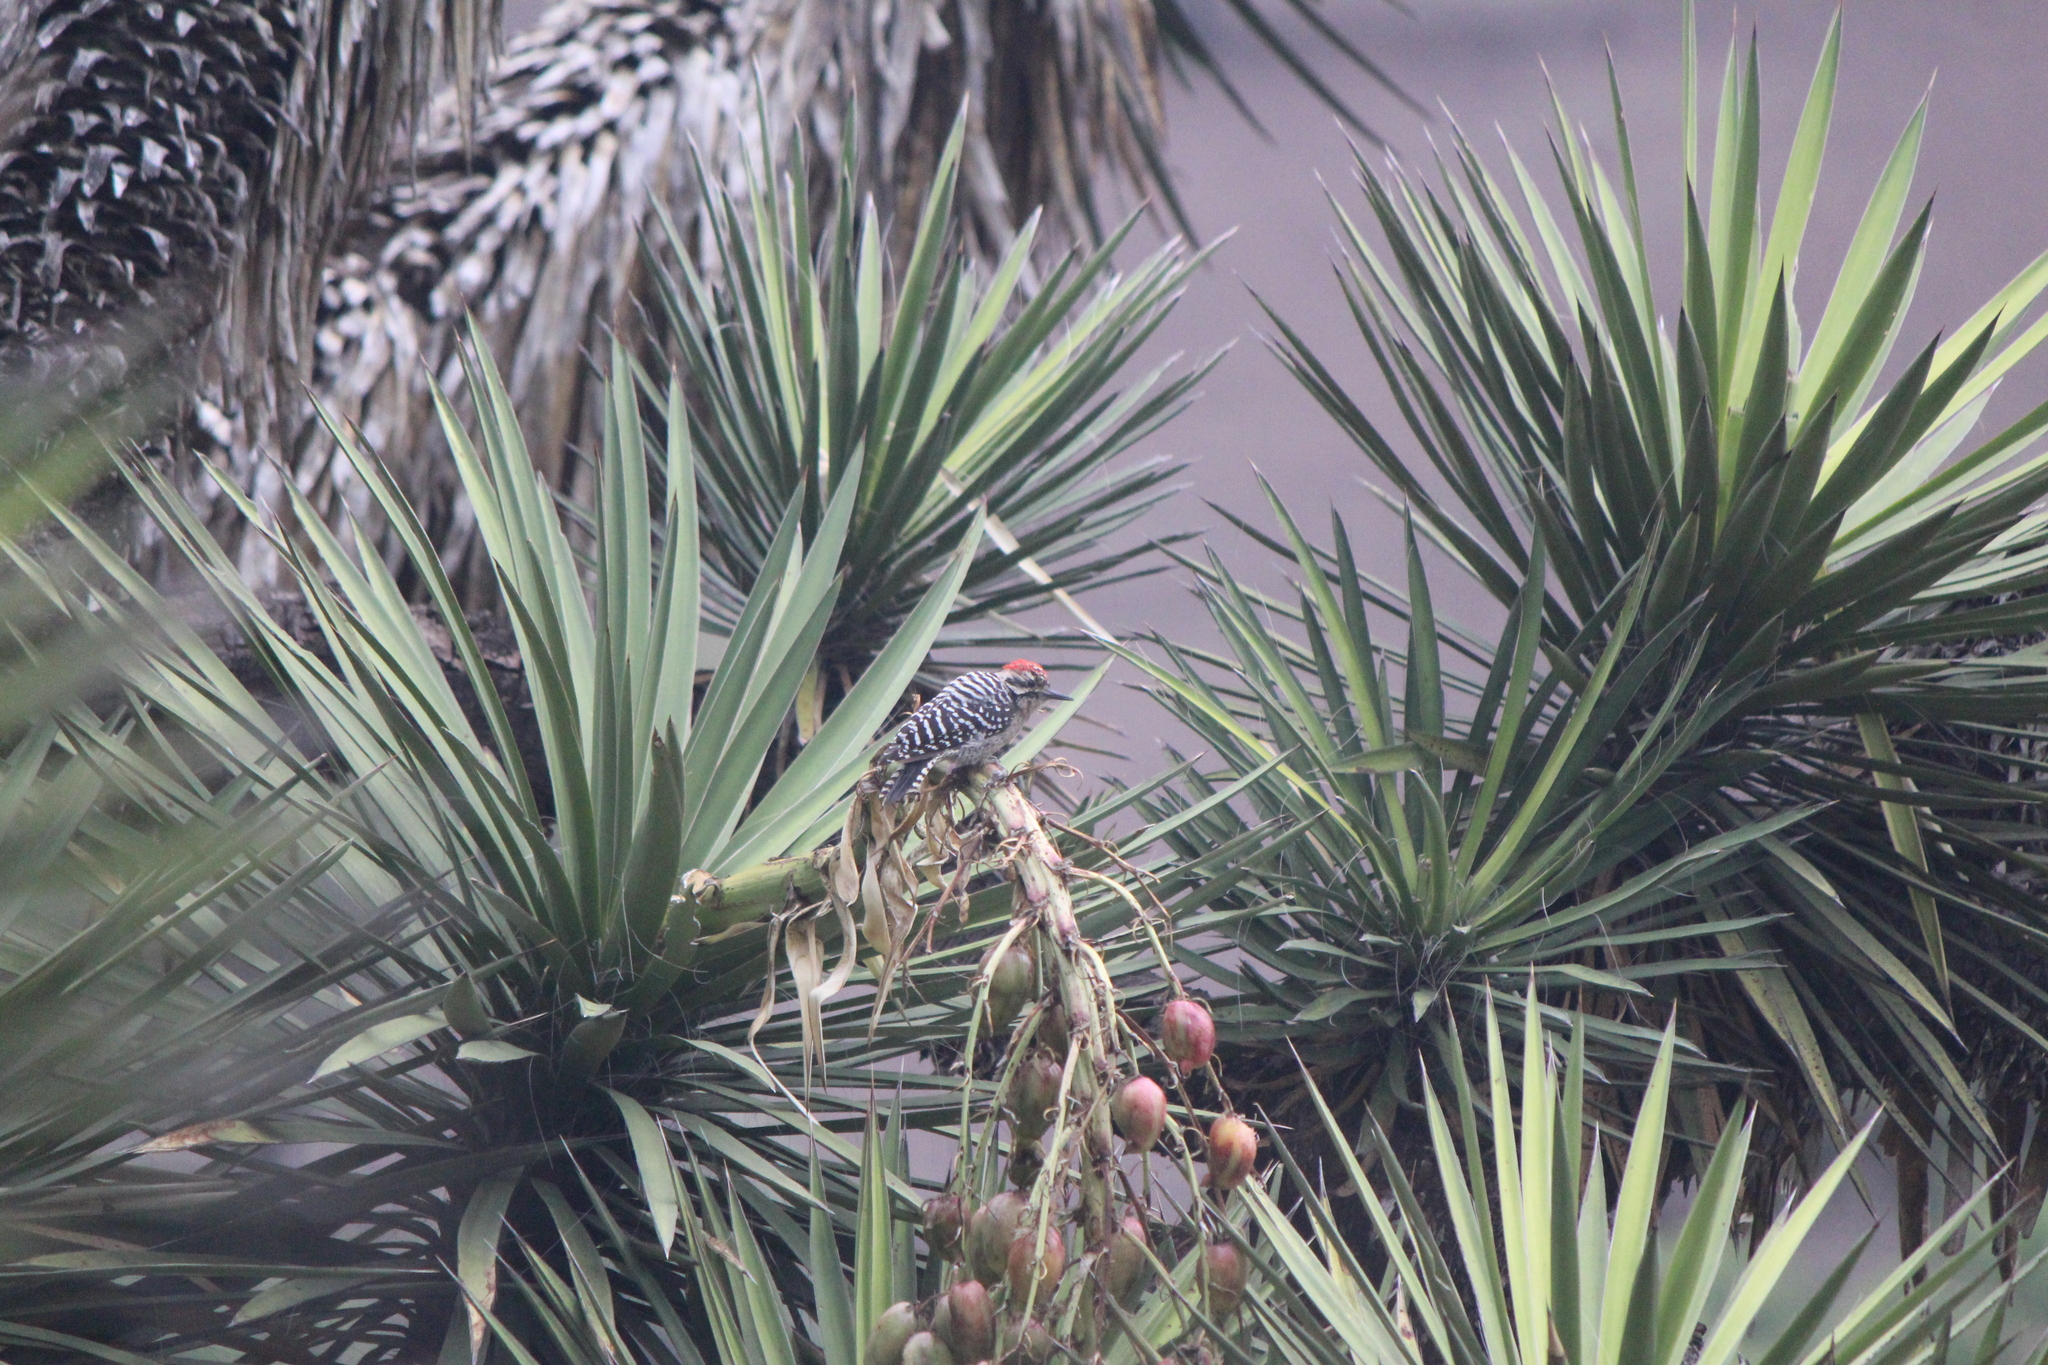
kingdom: Animalia
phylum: Chordata
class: Aves
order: Piciformes
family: Picidae
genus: Dryobates
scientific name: Dryobates scalaris
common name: Ladder-backed woodpecker
